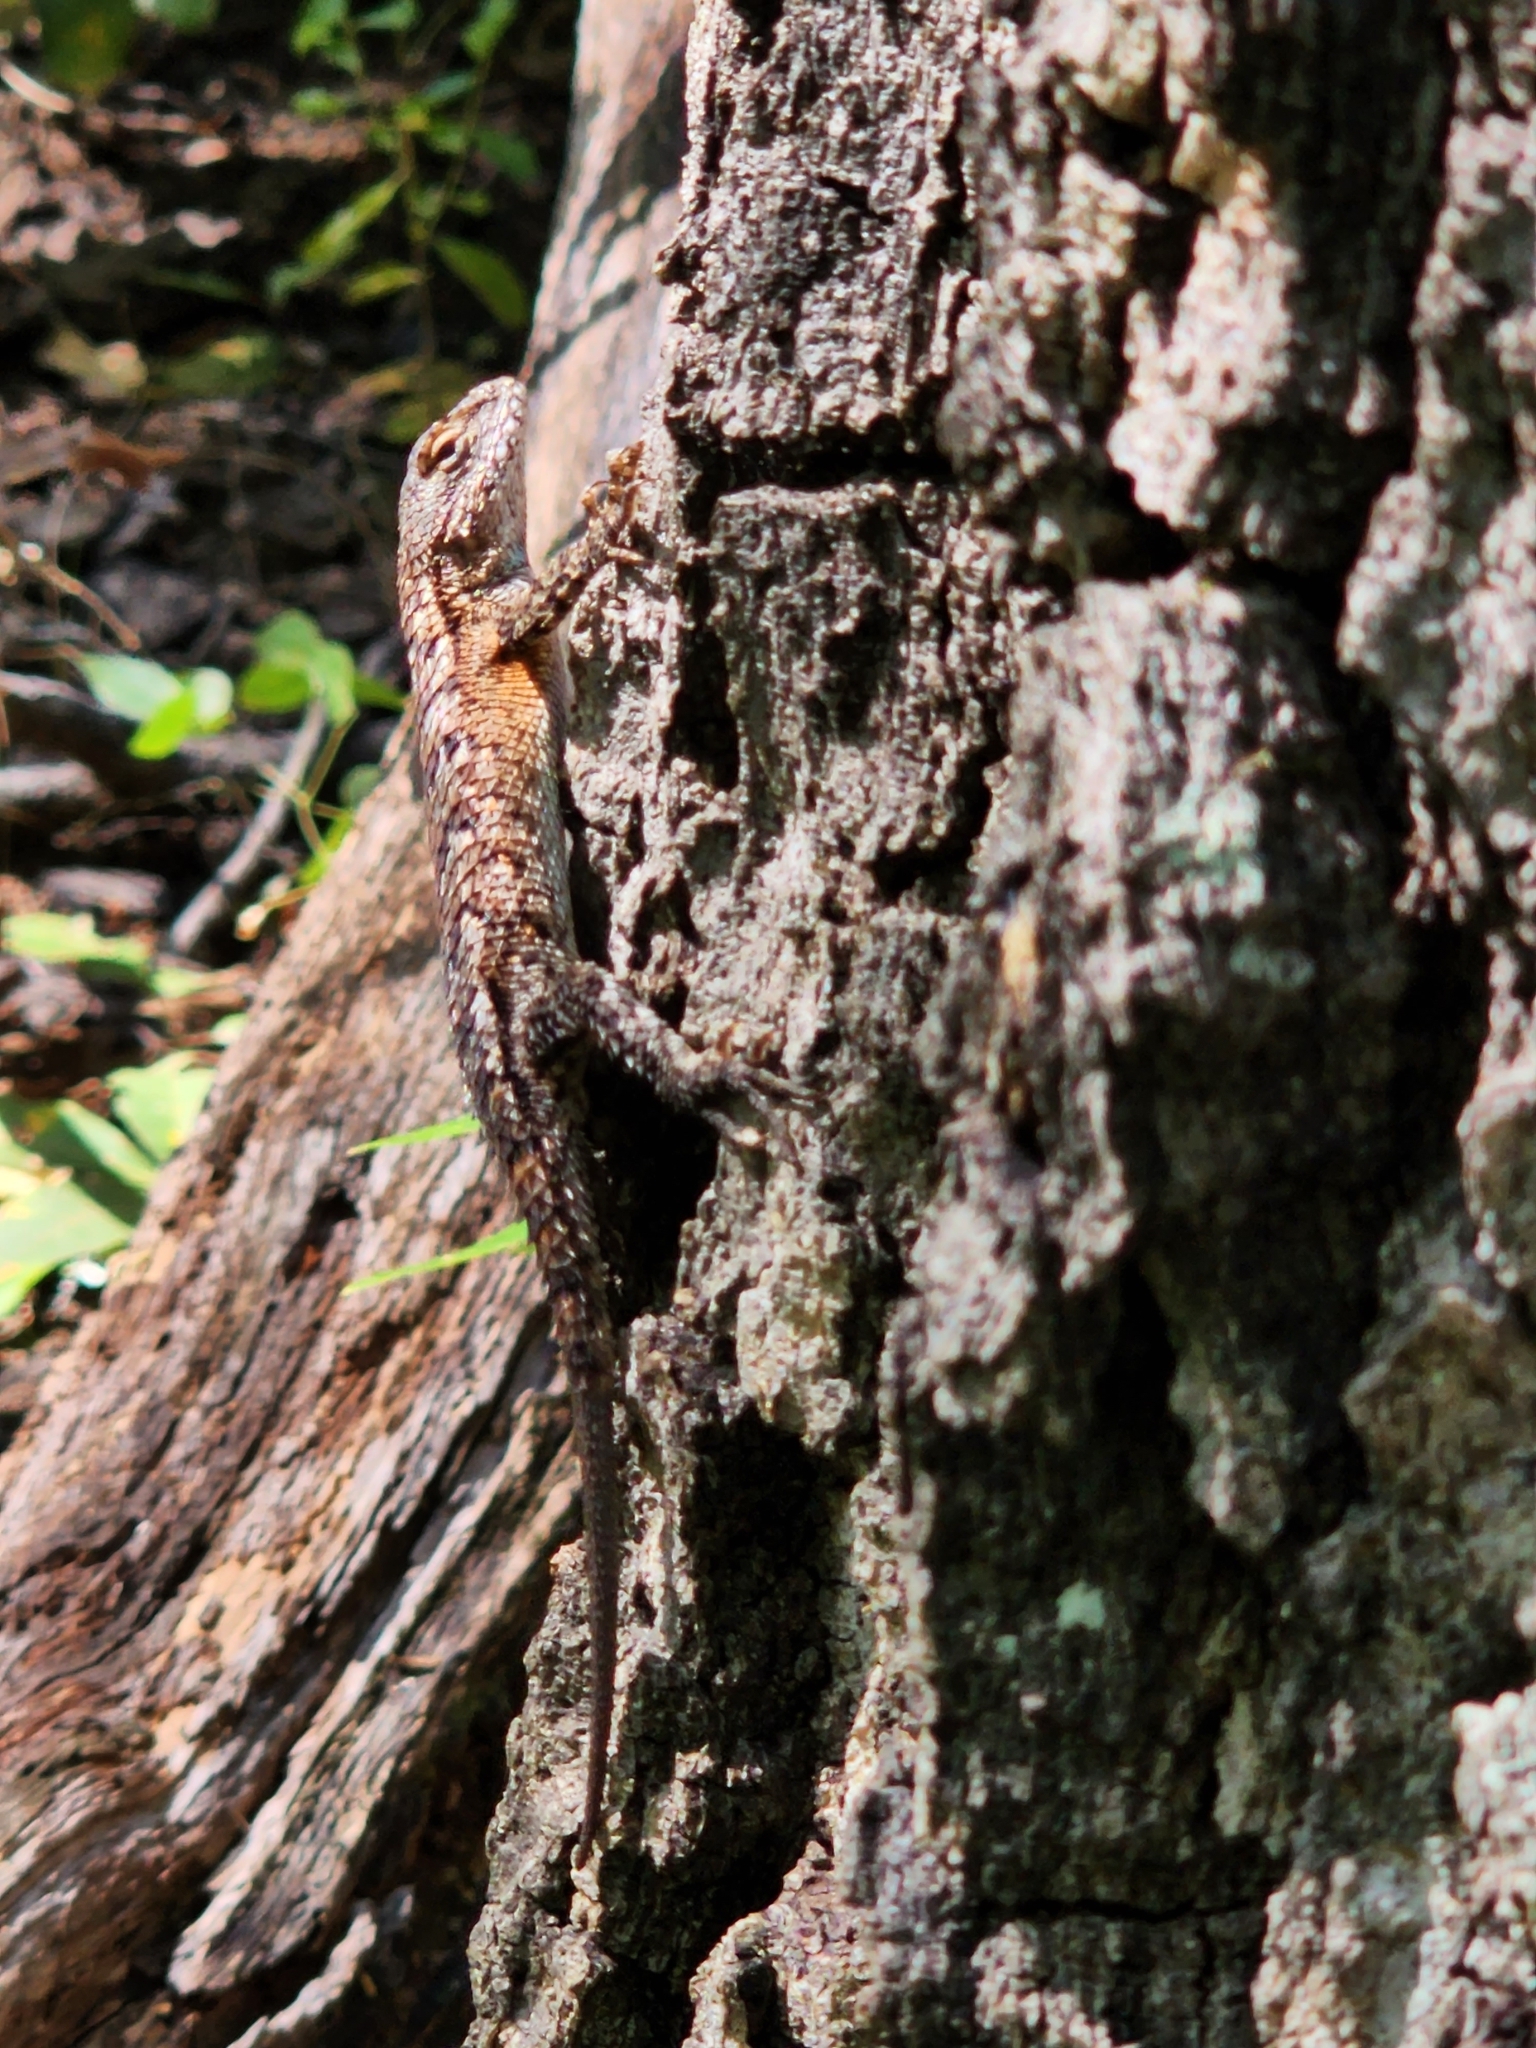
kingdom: Animalia
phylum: Chordata
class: Squamata
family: Phrynosomatidae
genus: Sceloporus
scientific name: Sceloporus undulatus
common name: Eastern fence lizard
